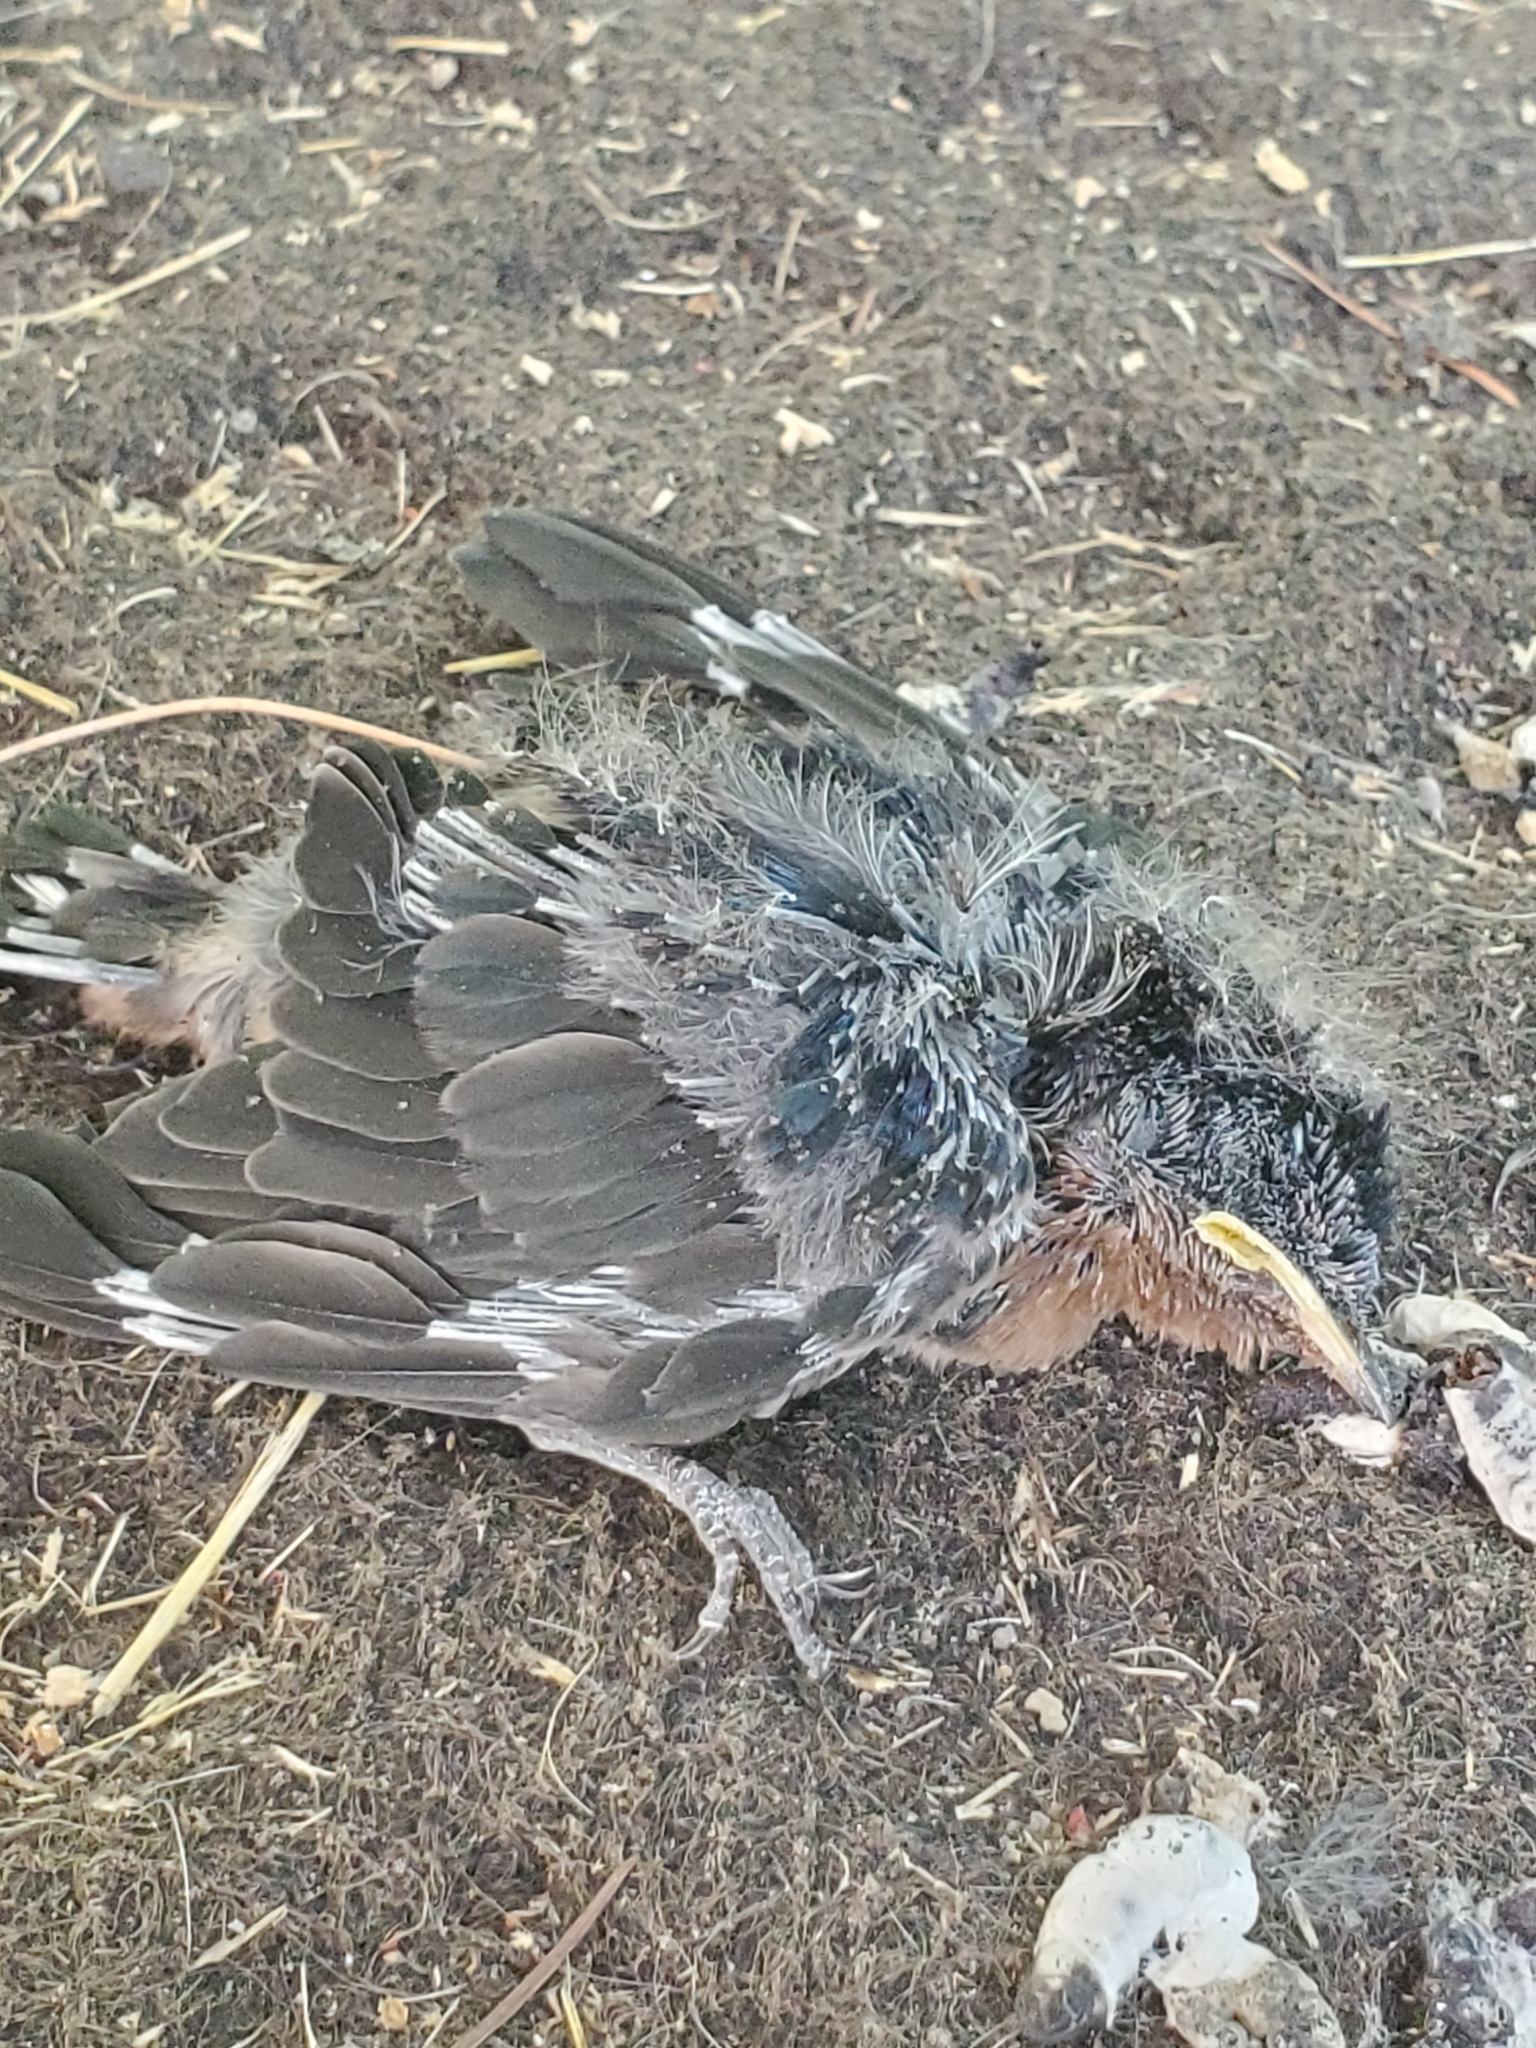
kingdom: Animalia
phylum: Chordata
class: Aves
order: Passeriformes
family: Hirundinidae
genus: Hirundo
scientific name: Hirundo rustica
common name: Barn swallow
